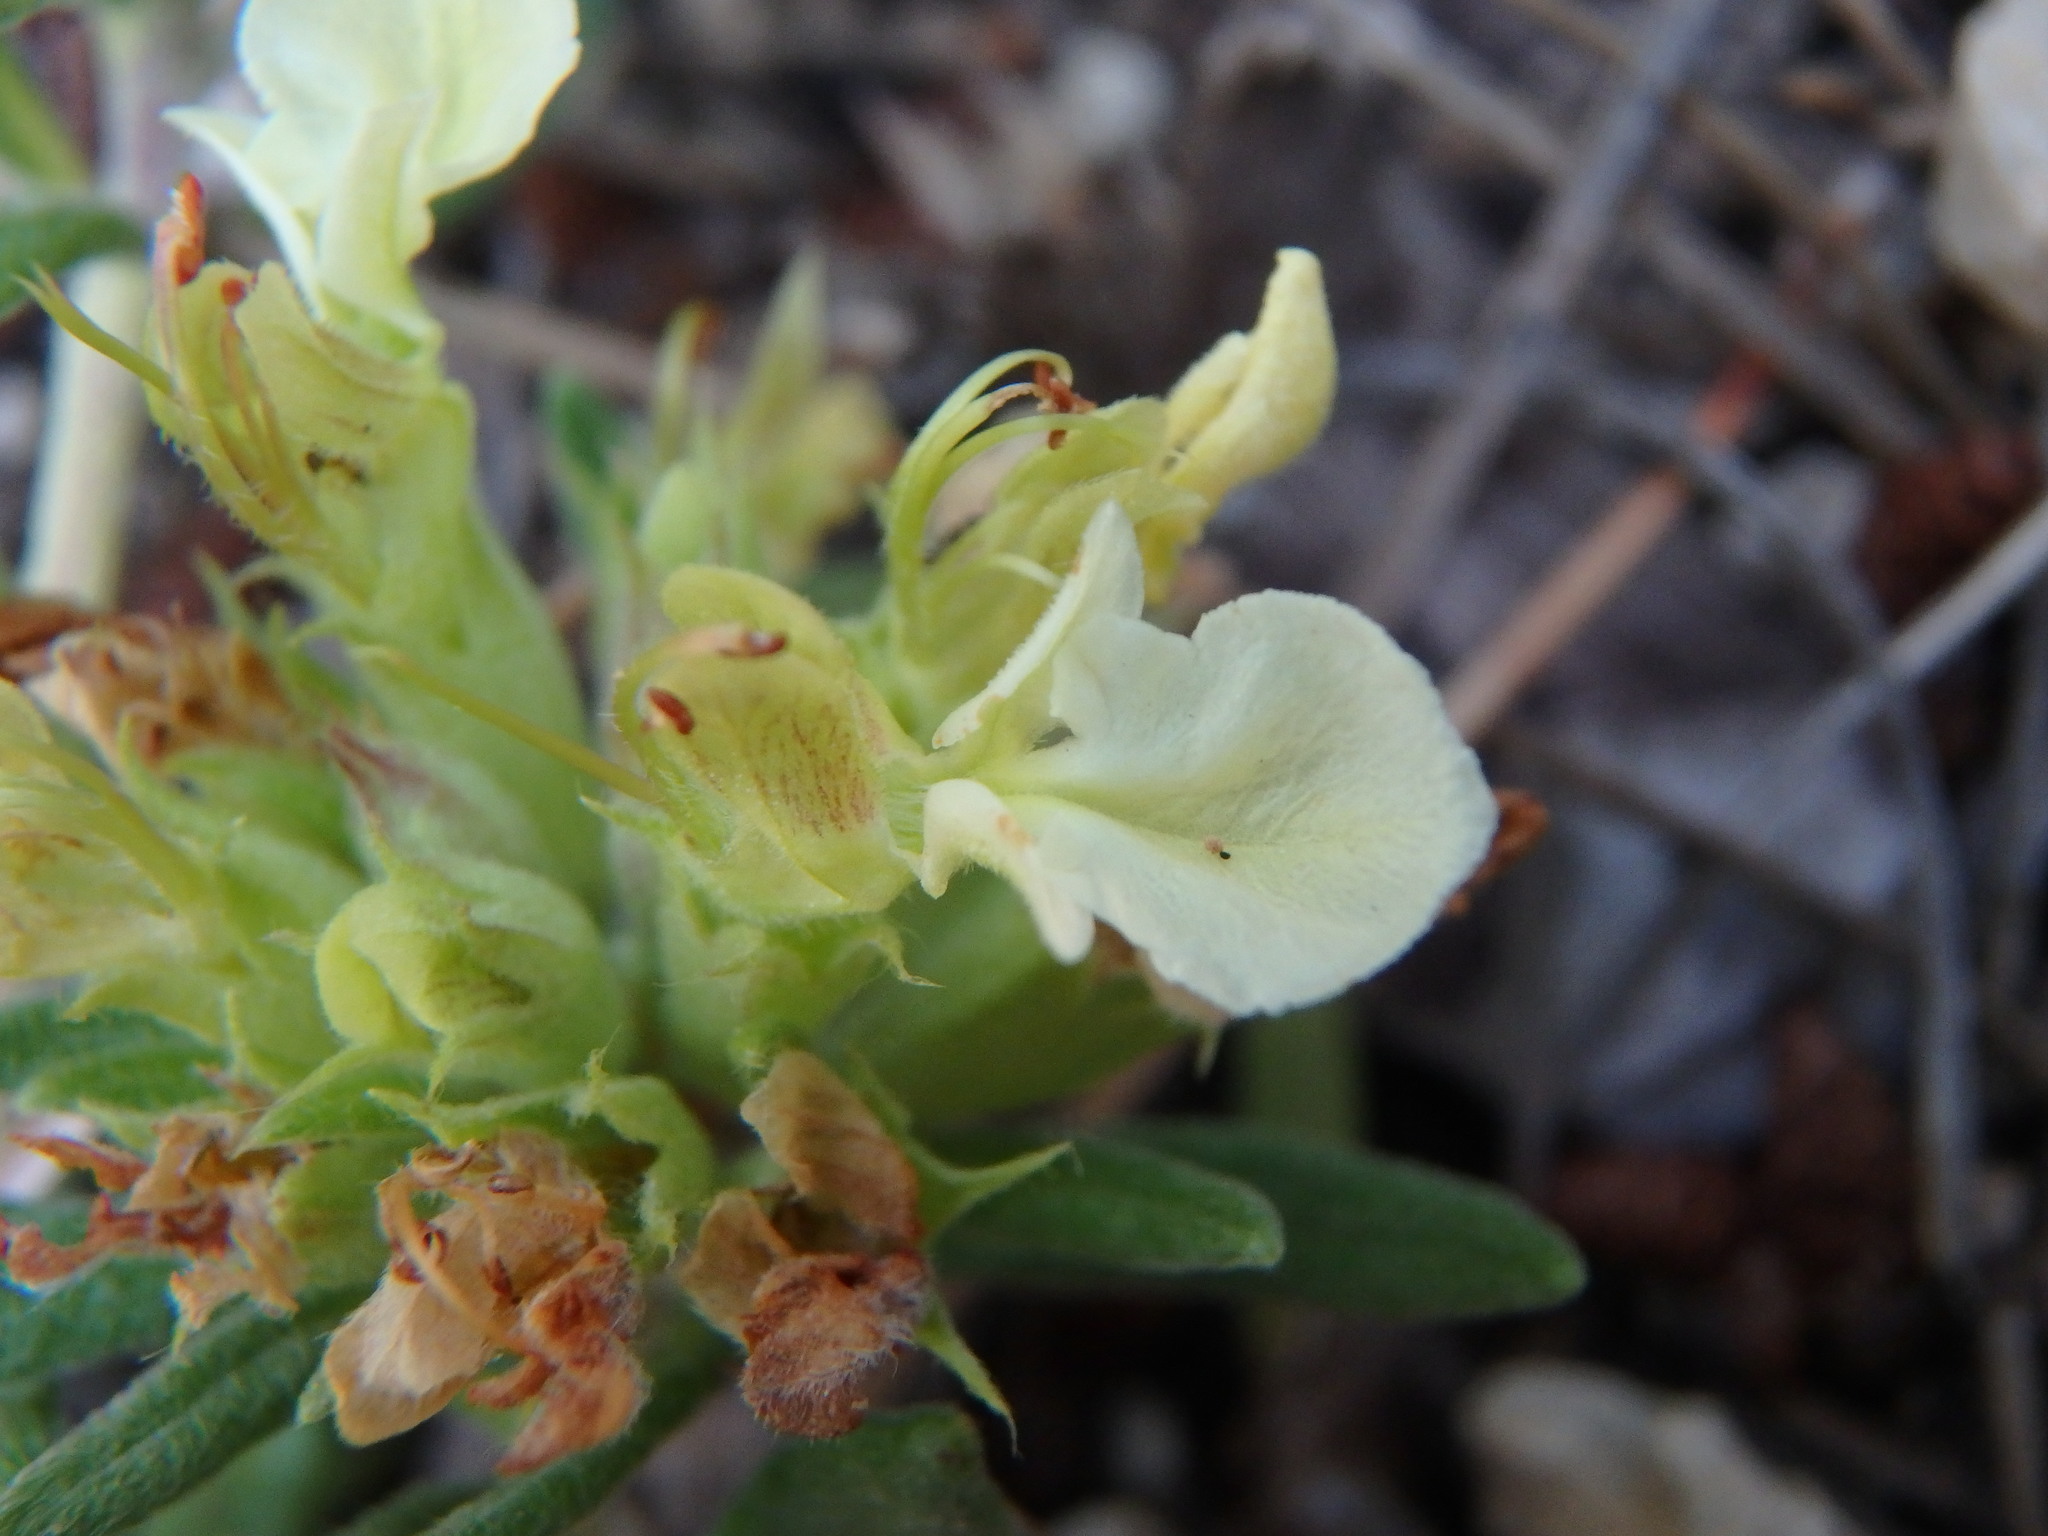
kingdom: Plantae
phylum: Tracheophyta
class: Magnoliopsida
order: Lamiales
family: Lamiaceae
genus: Teucrium
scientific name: Teucrium montanum
